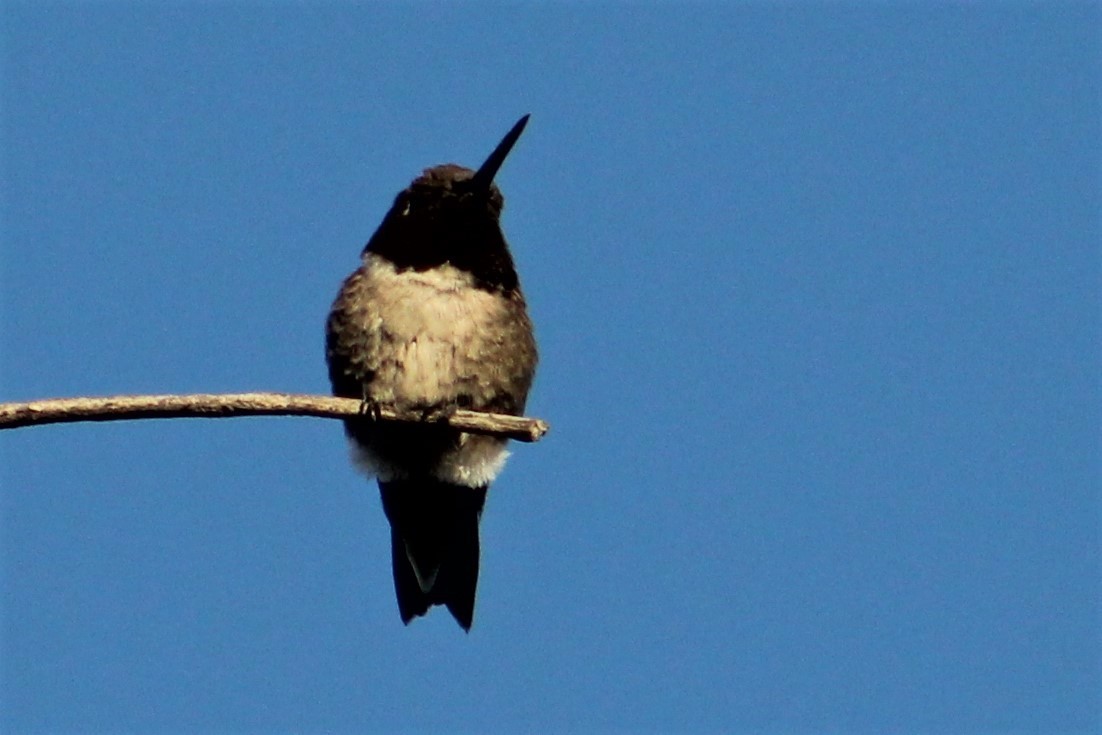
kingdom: Animalia
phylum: Chordata
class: Aves
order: Apodiformes
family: Trochilidae
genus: Archilochus
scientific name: Archilochus alexandri
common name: Black-chinned hummingbird
